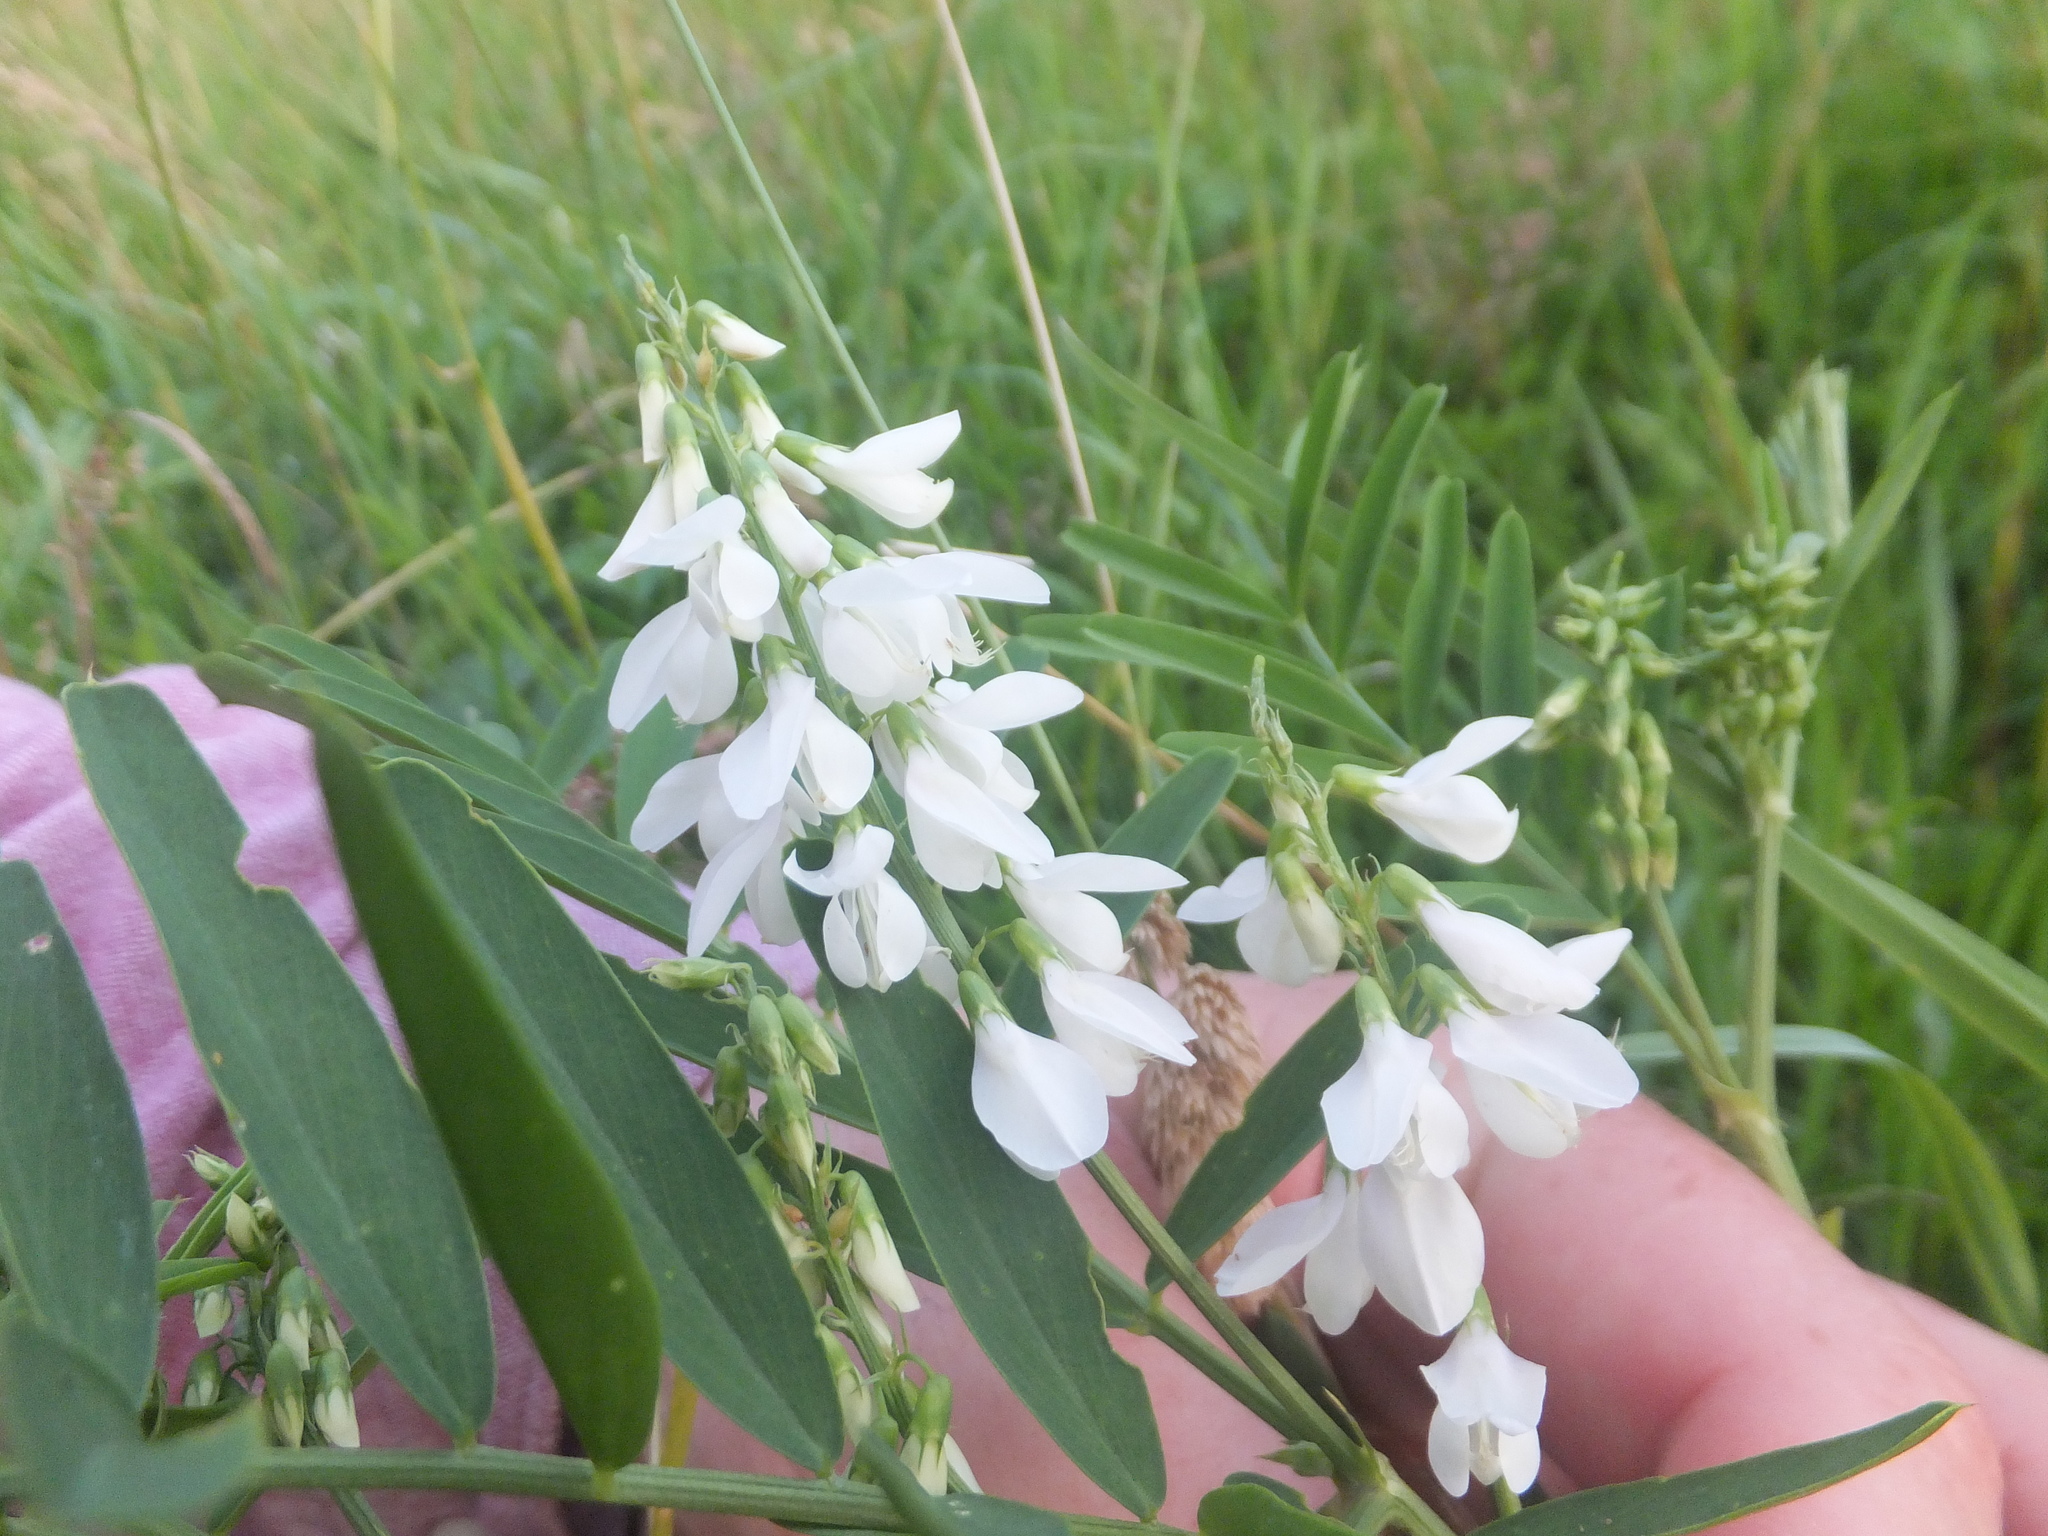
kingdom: Plantae
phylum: Tracheophyta
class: Magnoliopsida
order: Fabales
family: Fabaceae
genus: Galega
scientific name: Galega officinalis
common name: Goat's-rue
